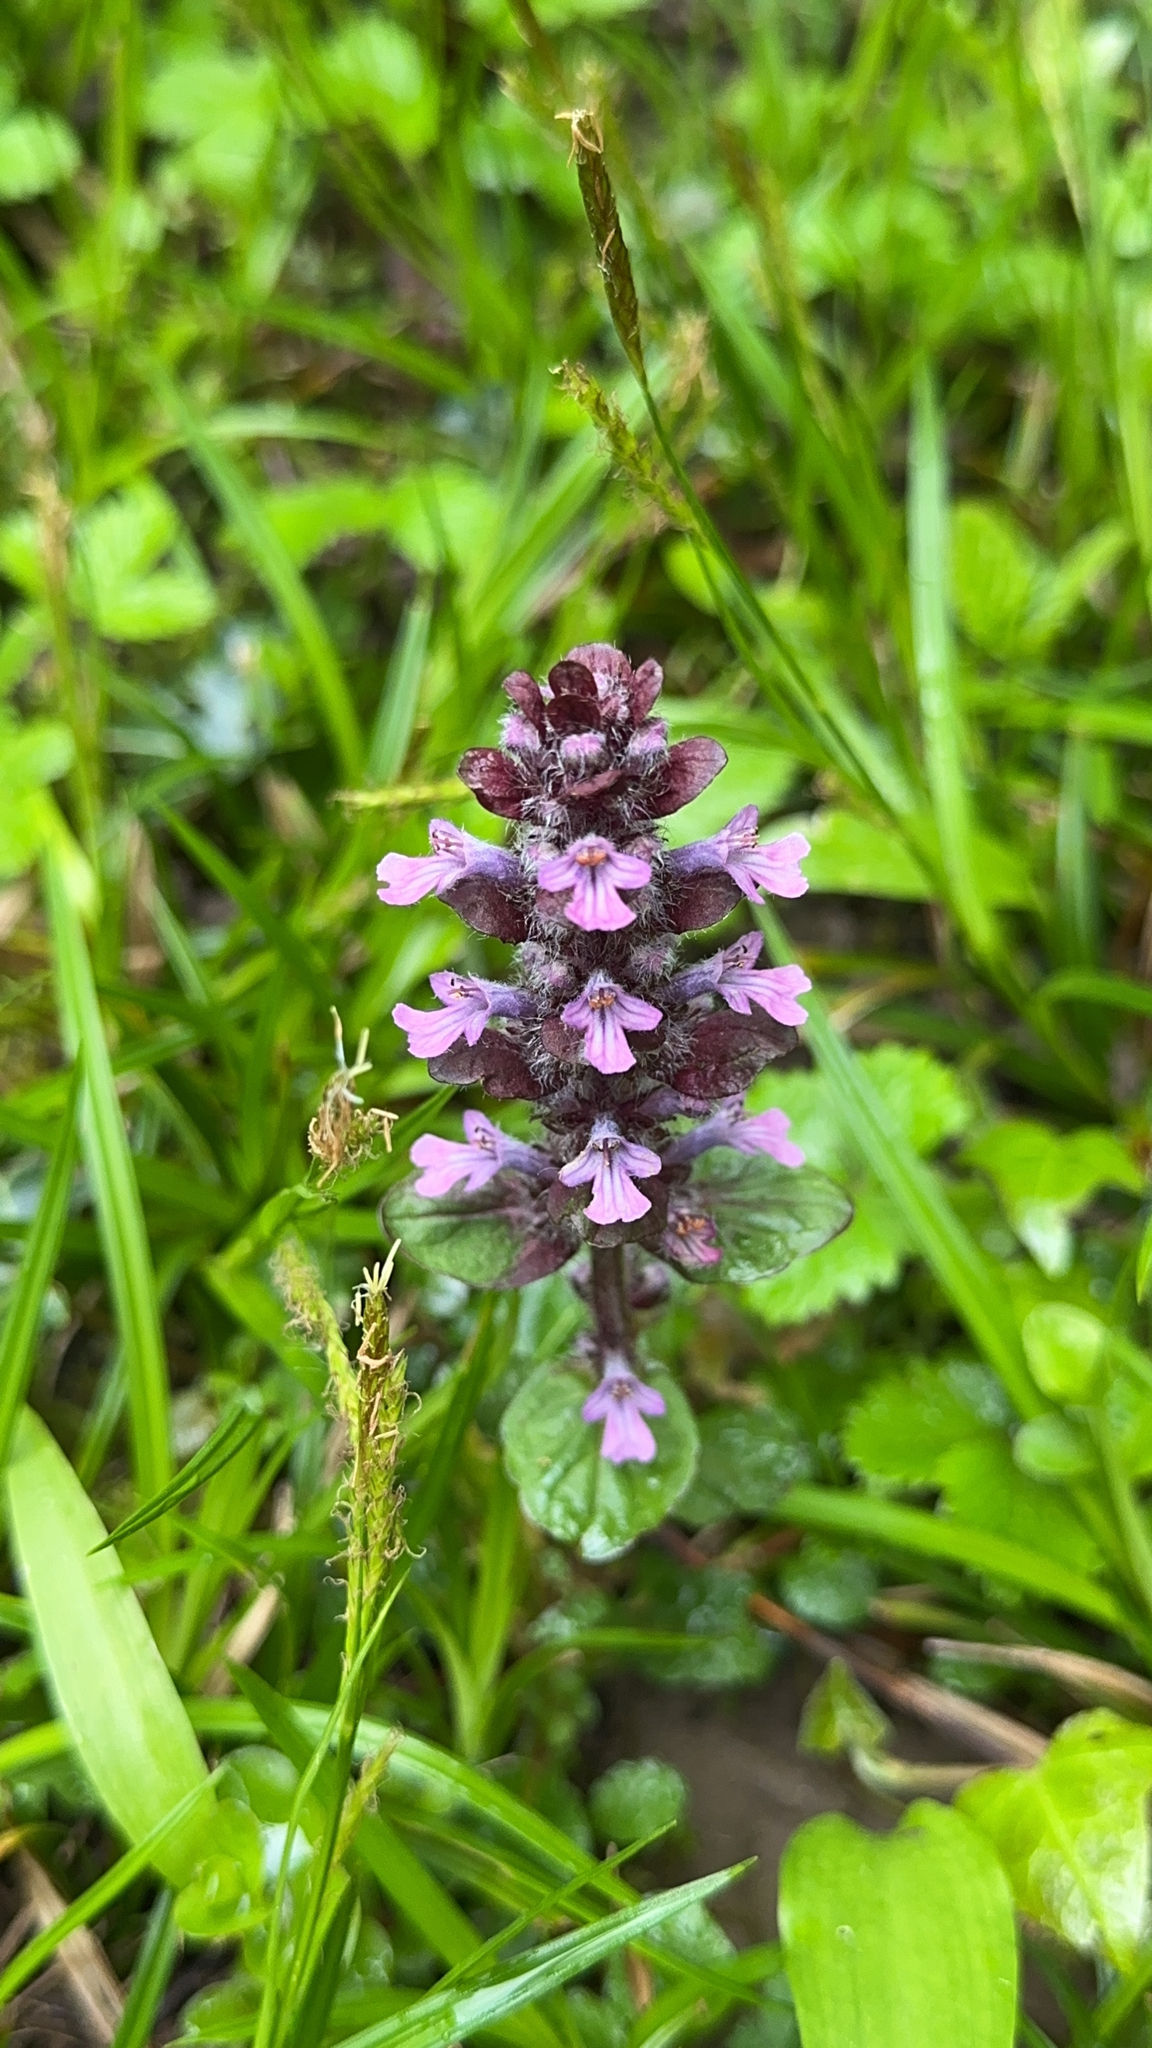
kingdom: Plantae
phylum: Tracheophyta
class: Magnoliopsida
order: Lamiales
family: Lamiaceae
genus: Ajuga
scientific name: Ajuga reptans
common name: Bugle
